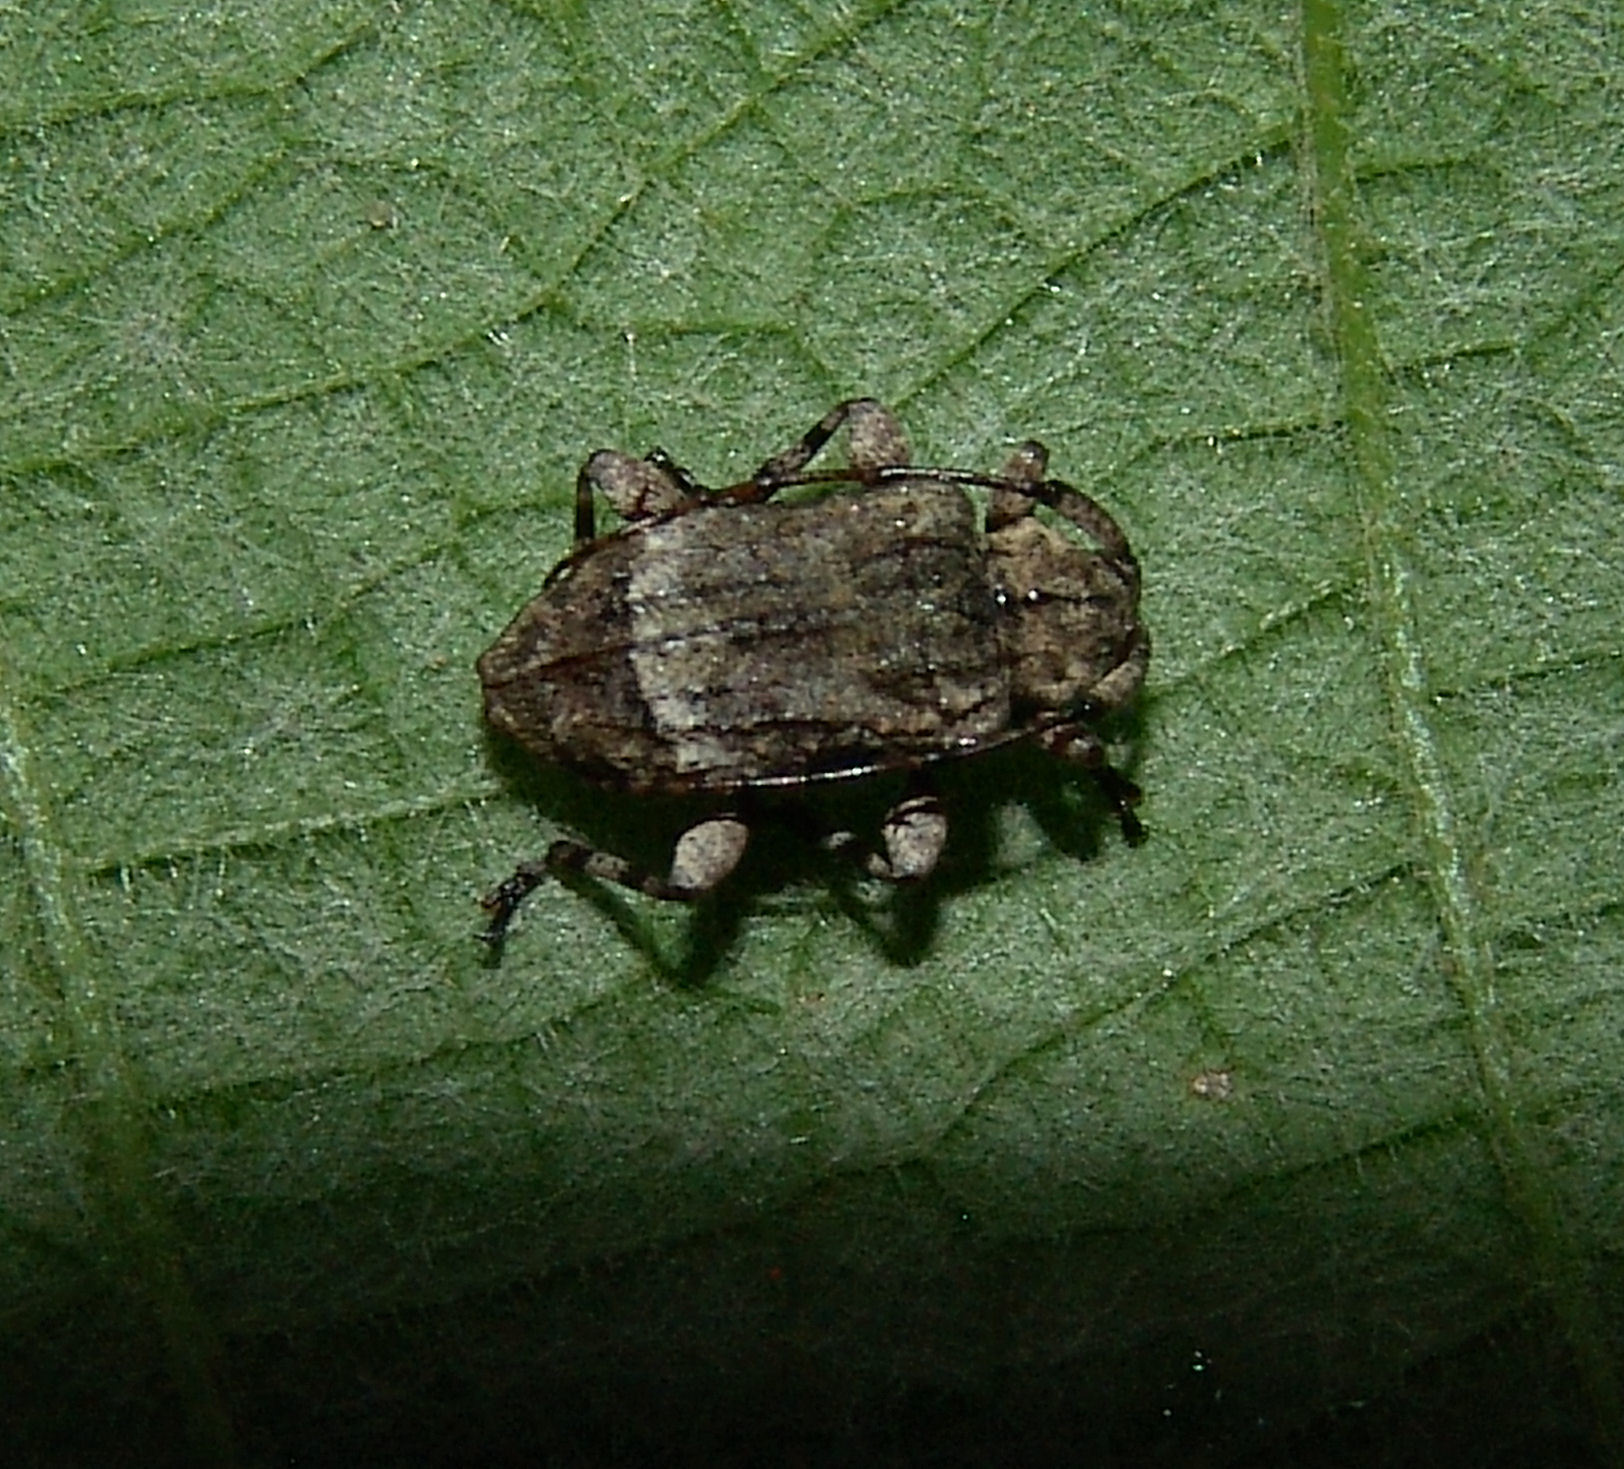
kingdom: Animalia
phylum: Arthropoda
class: Insecta
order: Coleoptera
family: Cerambycidae
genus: Leptostylus
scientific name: Leptostylus transversus
